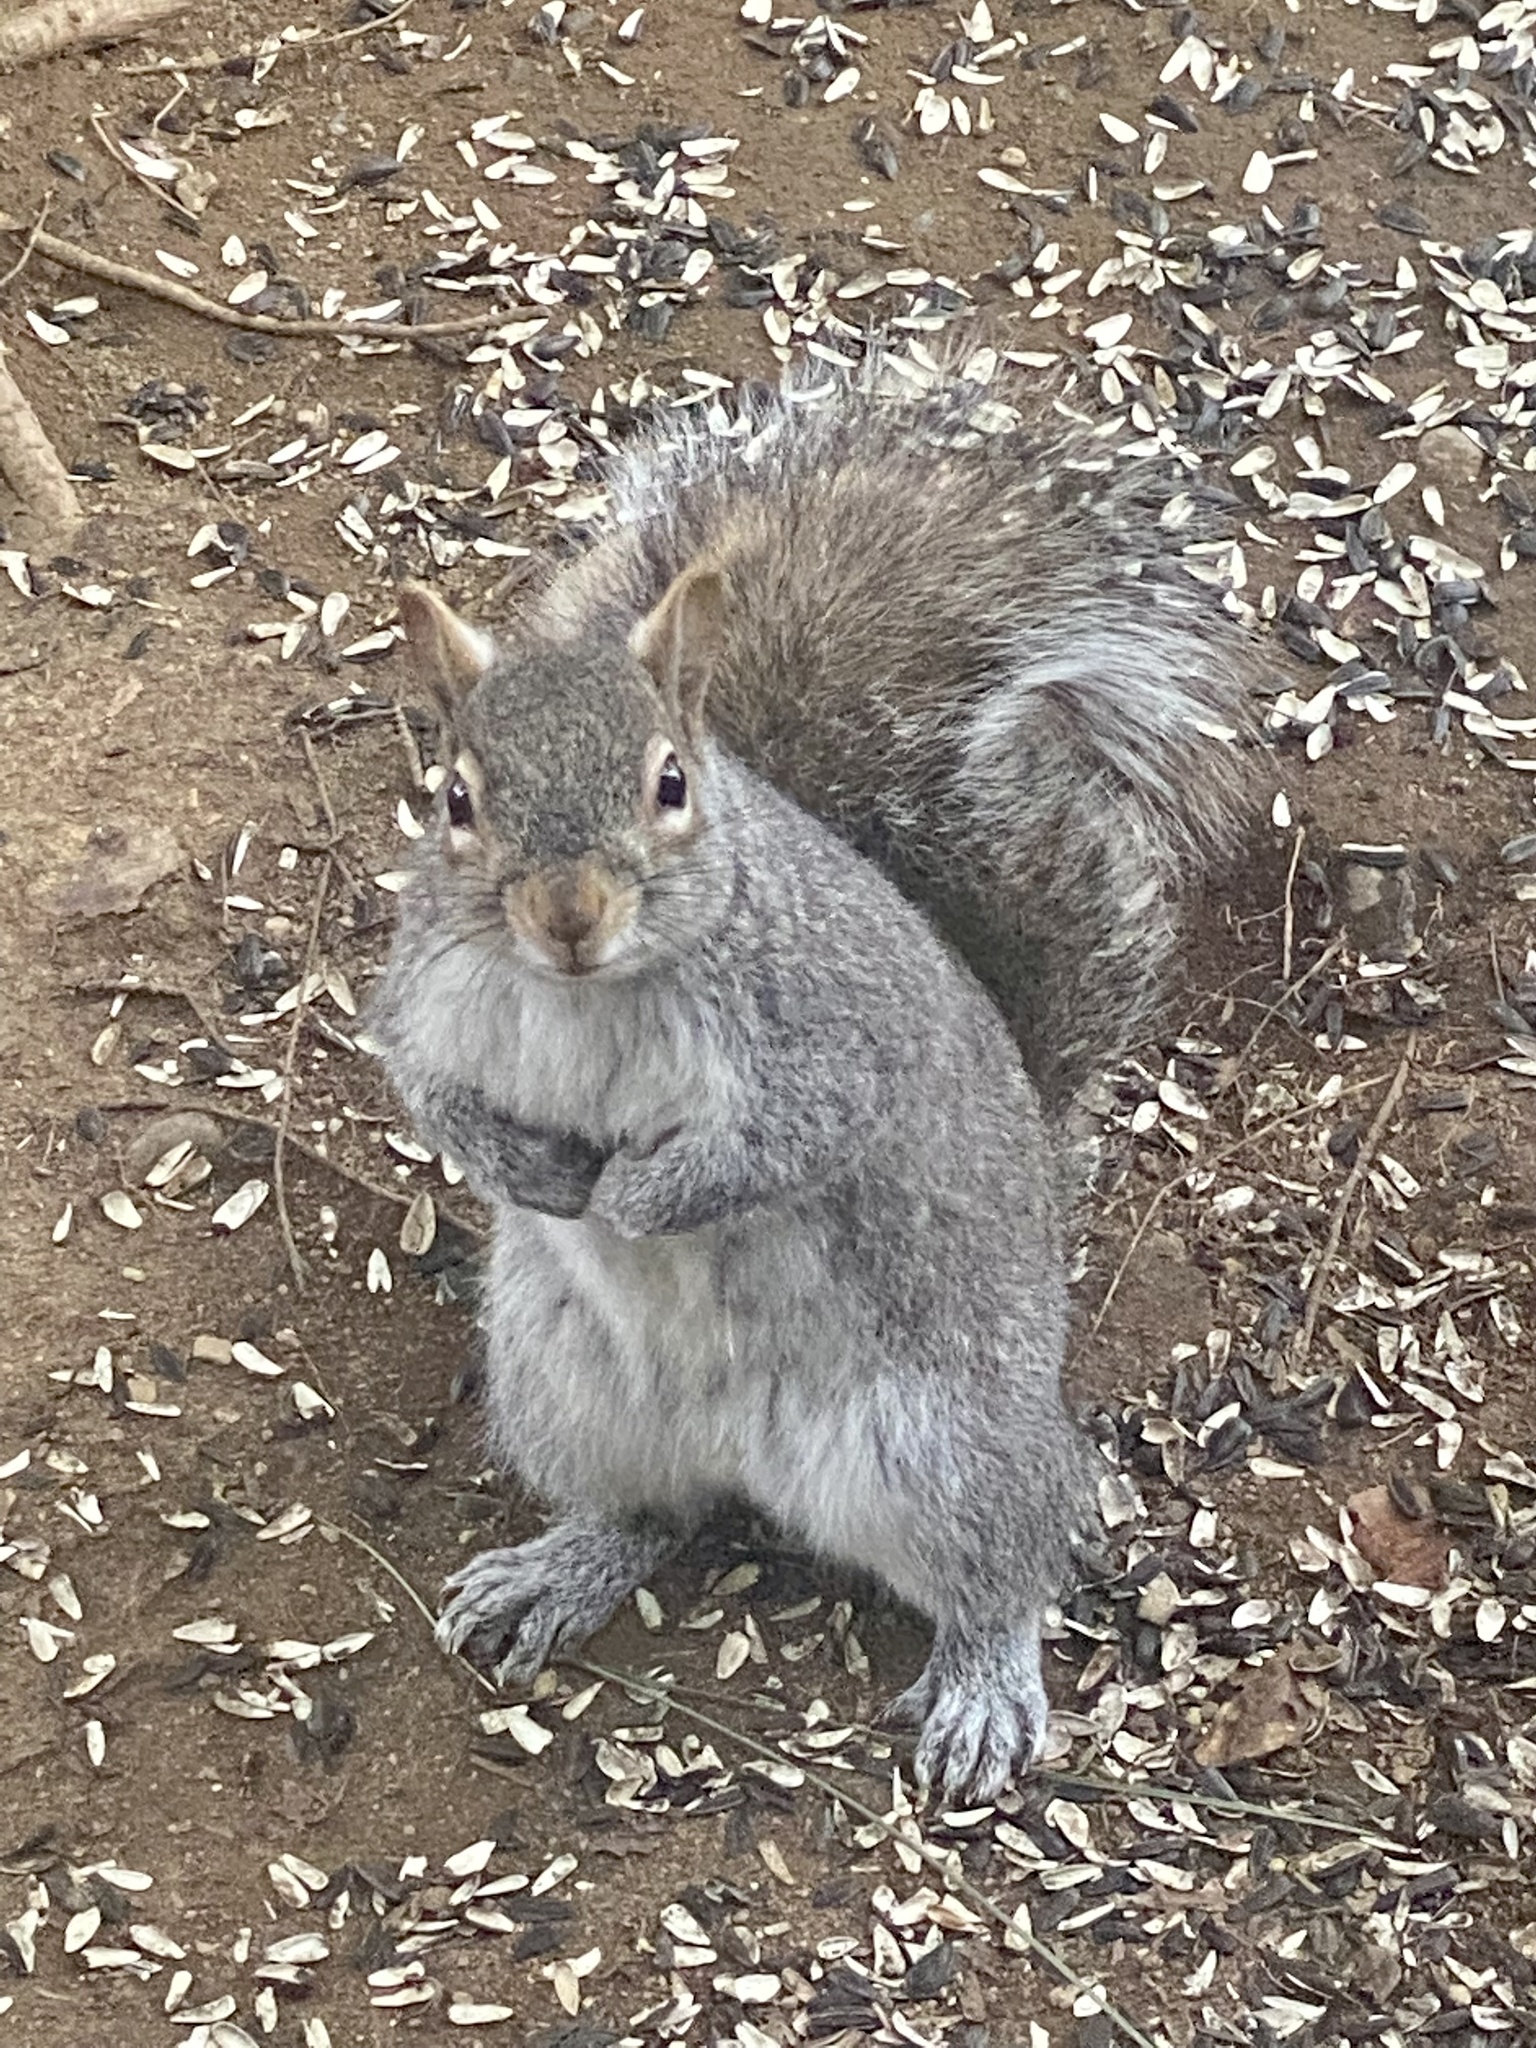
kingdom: Animalia
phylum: Chordata
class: Mammalia
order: Rodentia
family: Sciuridae
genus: Sciurus
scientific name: Sciurus carolinensis
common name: Eastern gray squirrel
